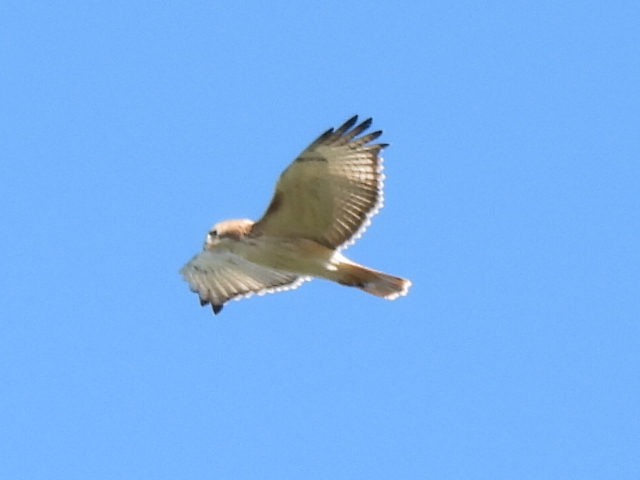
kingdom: Animalia
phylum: Chordata
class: Aves
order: Accipitriformes
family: Accipitridae
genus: Buteo
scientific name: Buteo jamaicensis
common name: Red-tailed hawk
